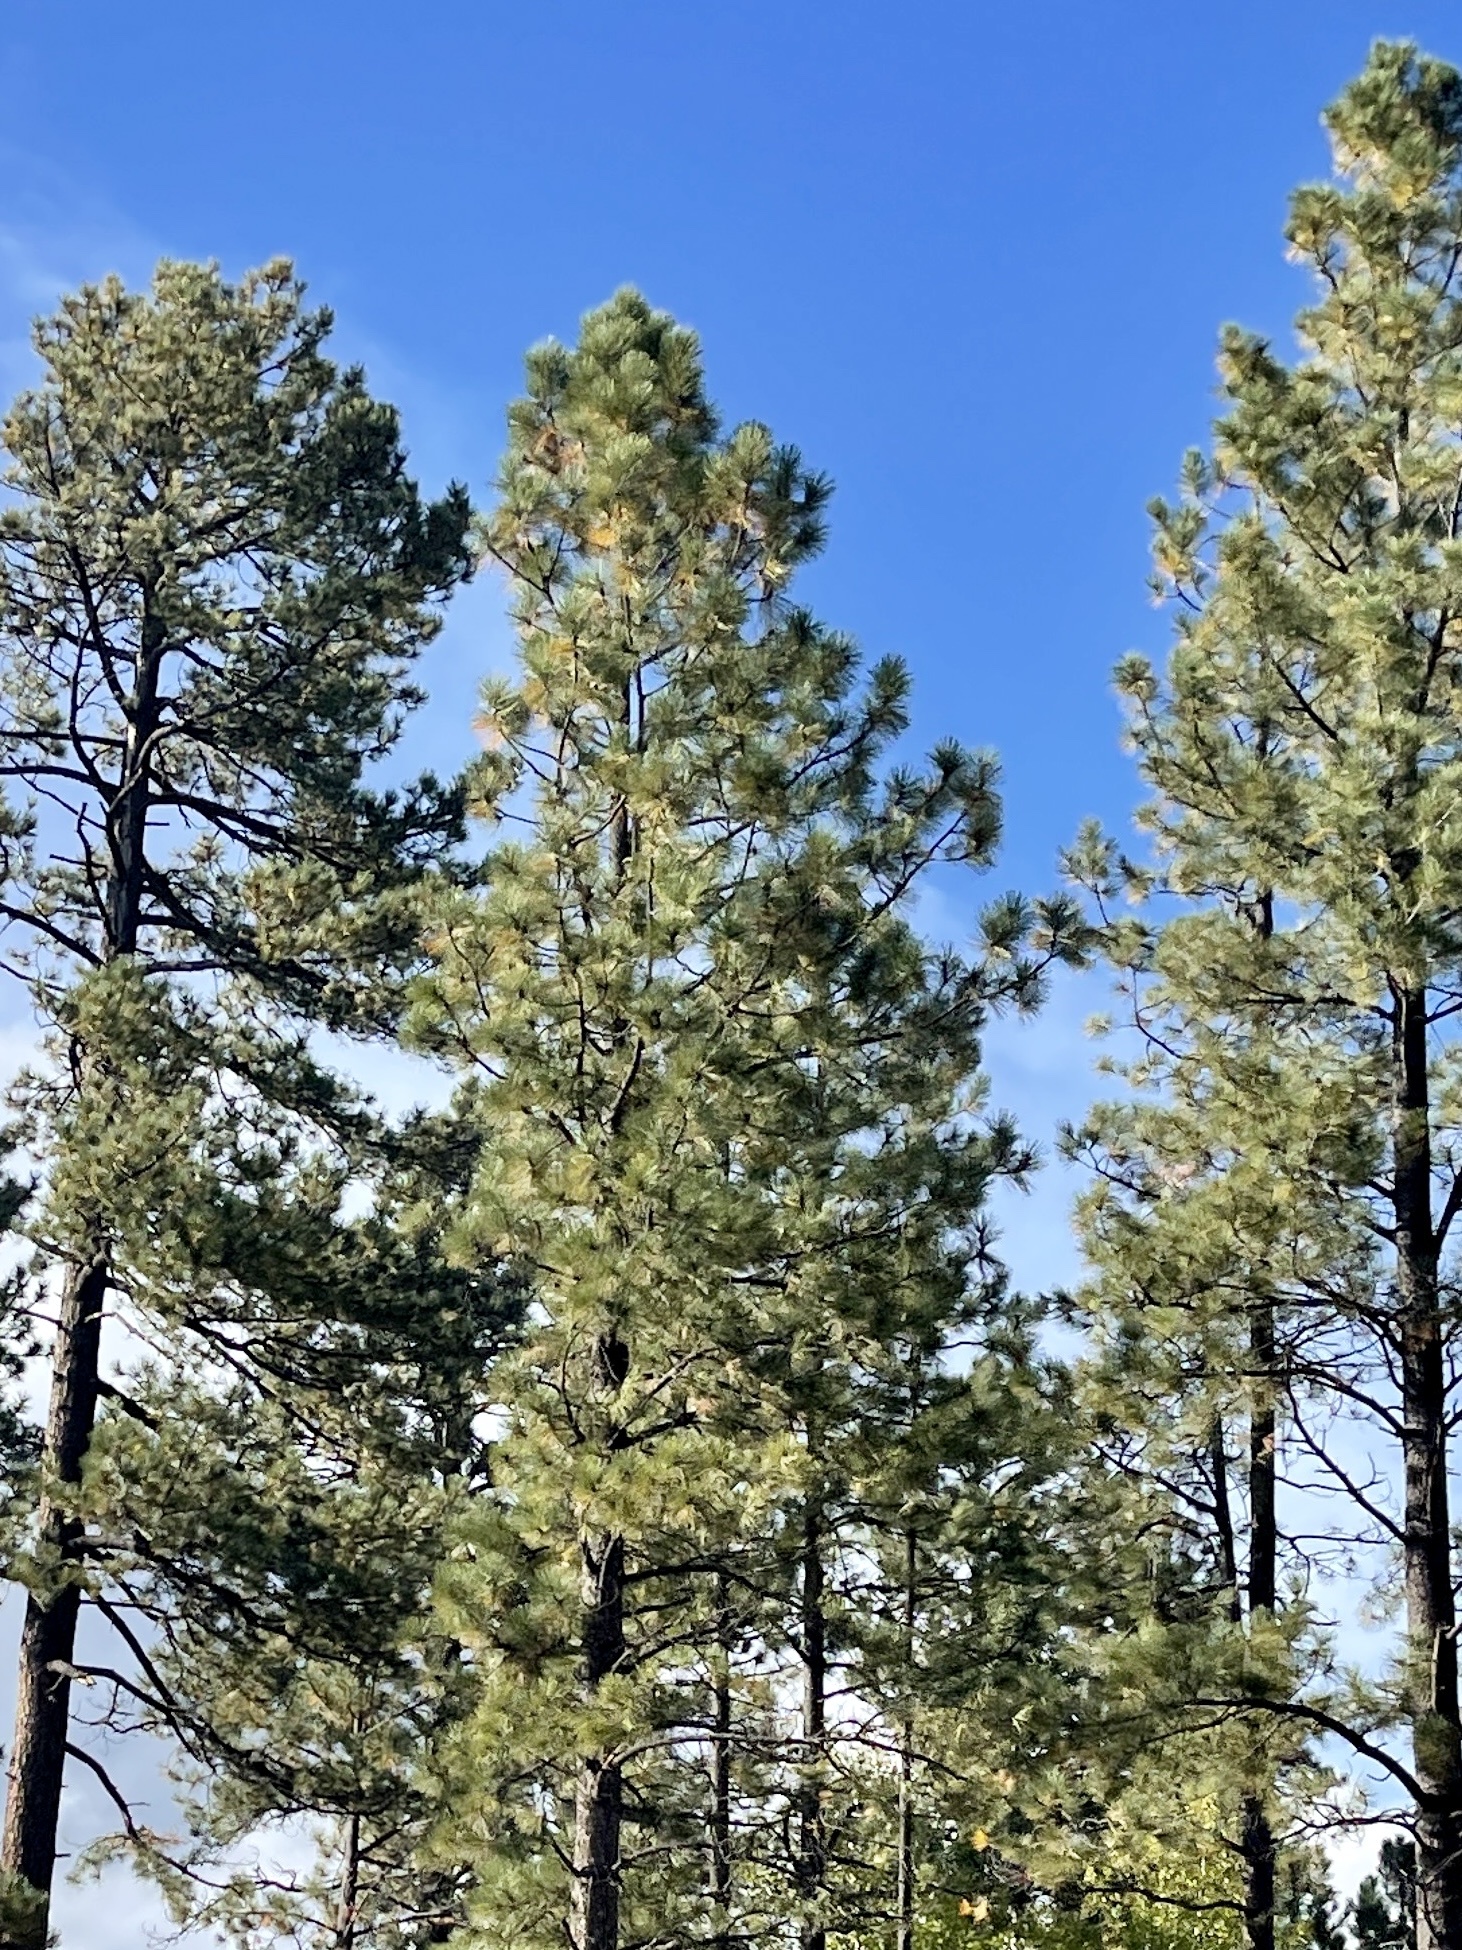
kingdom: Plantae
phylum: Tracheophyta
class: Pinopsida
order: Pinales
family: Pinaceae
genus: Pinus
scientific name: Pinus ponderosa
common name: Western yellow-pine
